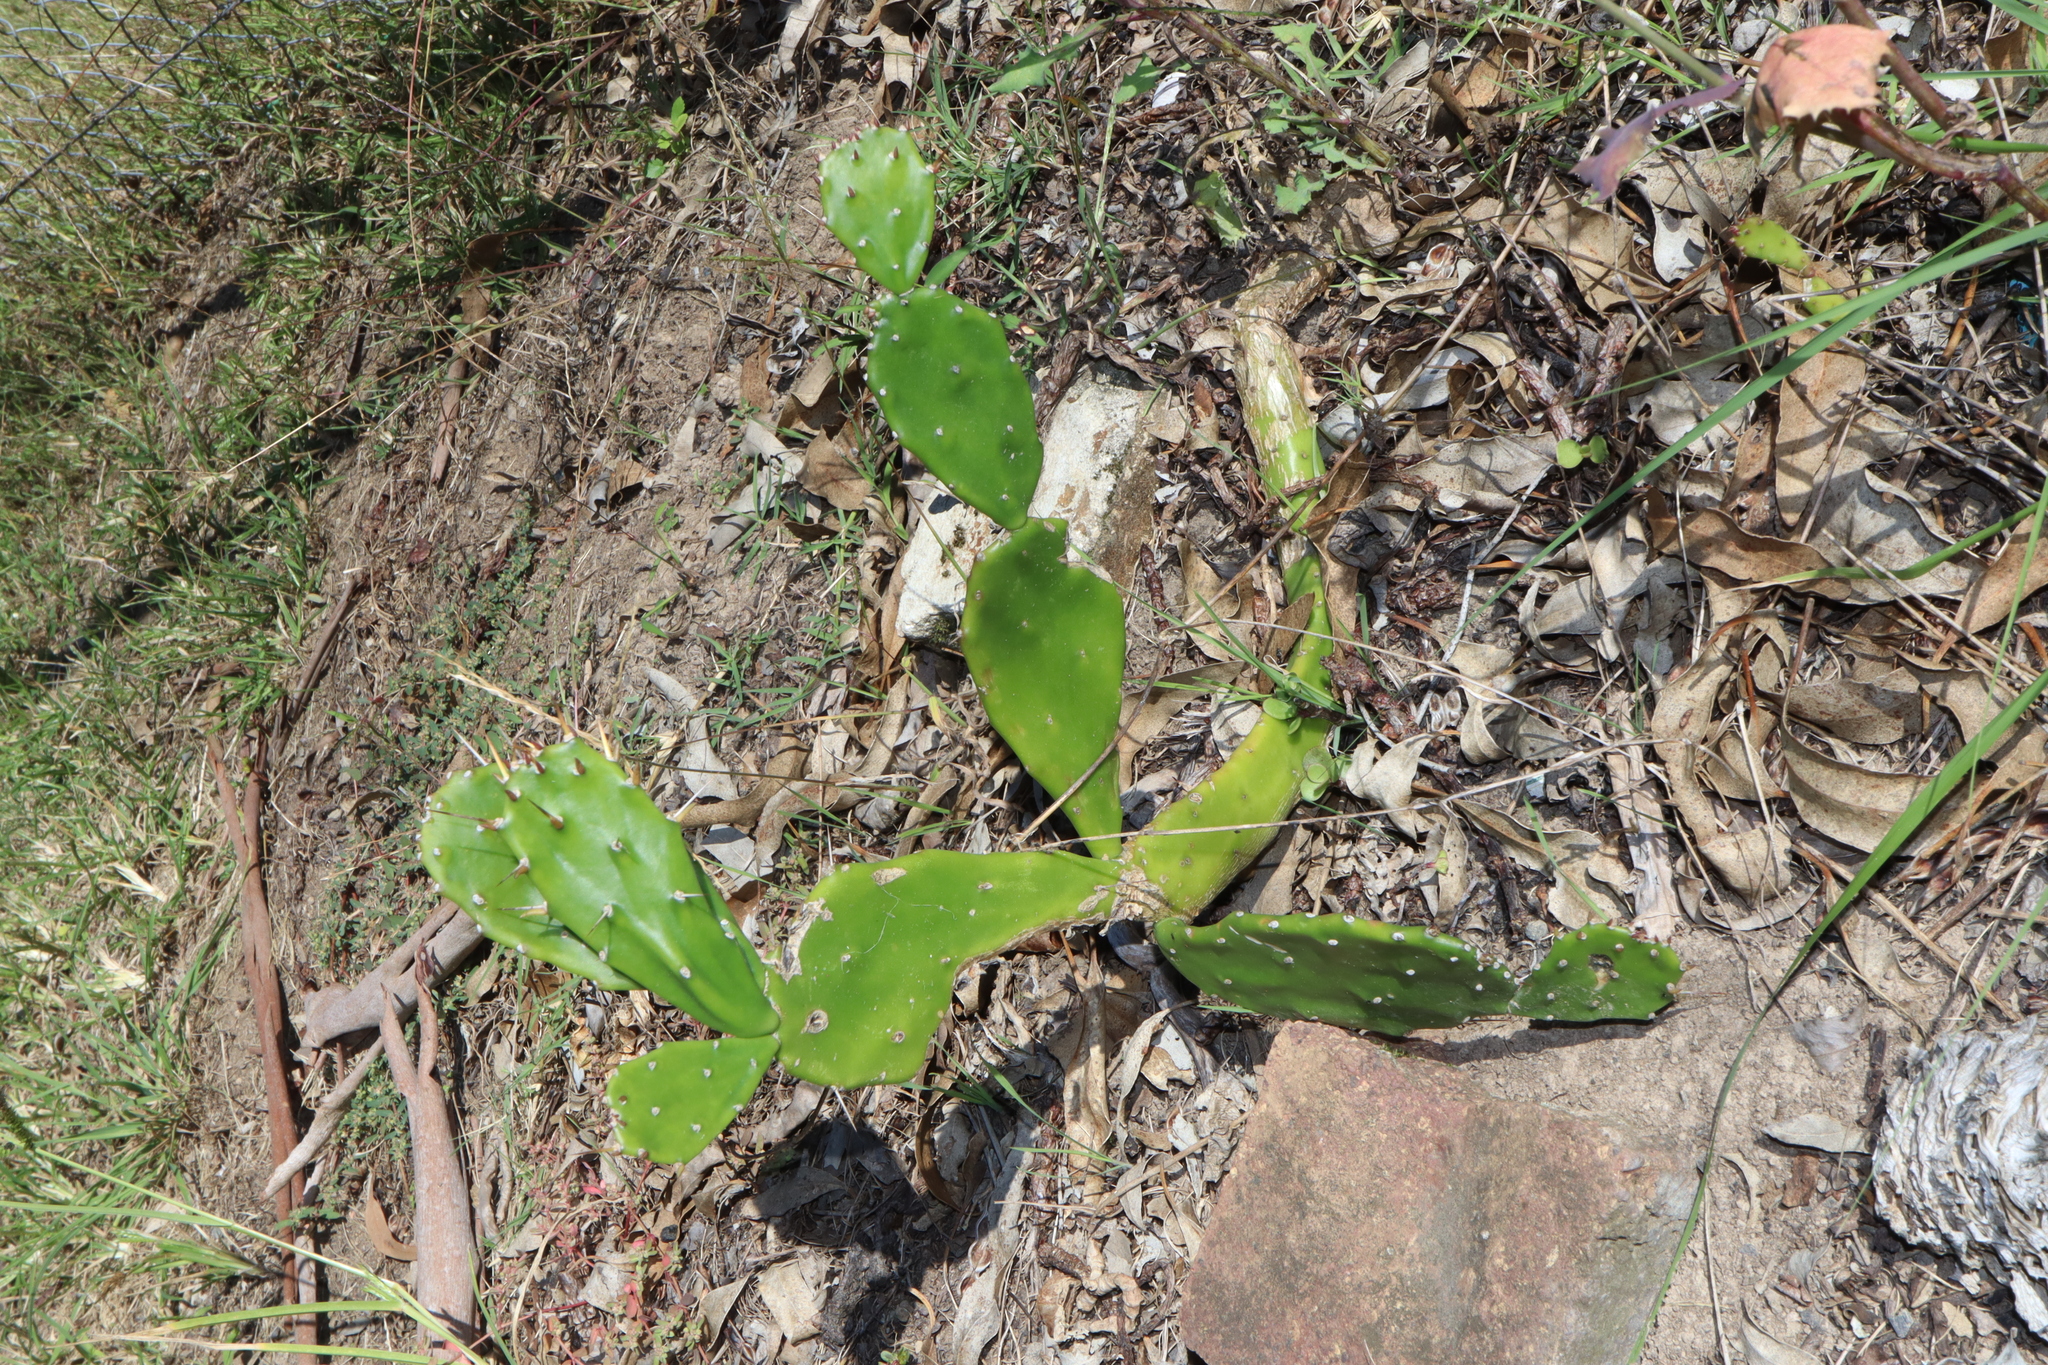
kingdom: Plantae
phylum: Tracheophyta
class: Magnoliopsida
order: Caryophyllales
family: Cactaceae
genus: Opuntia
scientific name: Opuntia monacantha
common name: Common pricklypear
